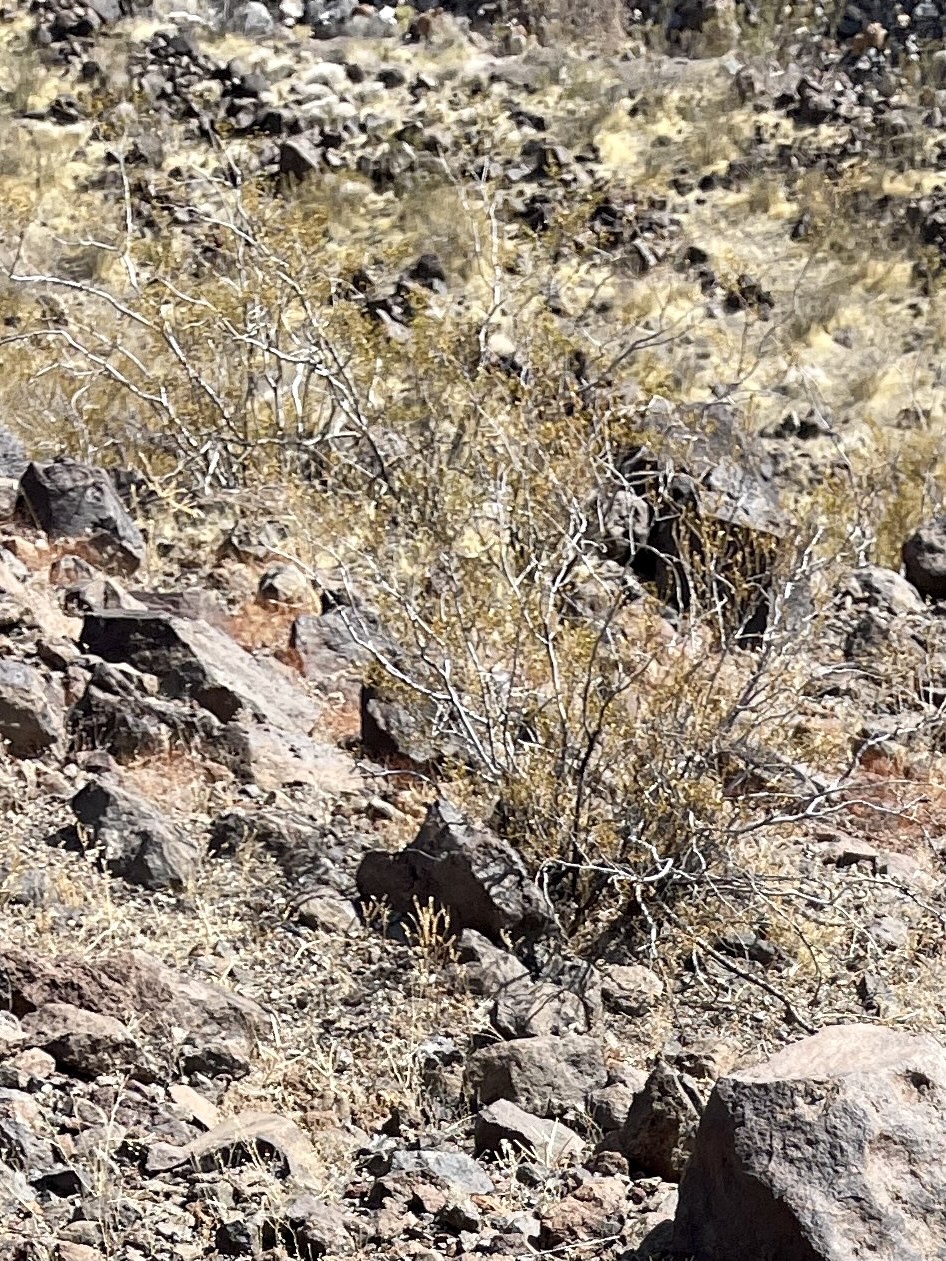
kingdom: Plantae
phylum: Tracheophyta
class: Magnoliopsida
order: Zygophyllales
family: Zygophyllaceae
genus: Larrea
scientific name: Larrea tridentata
